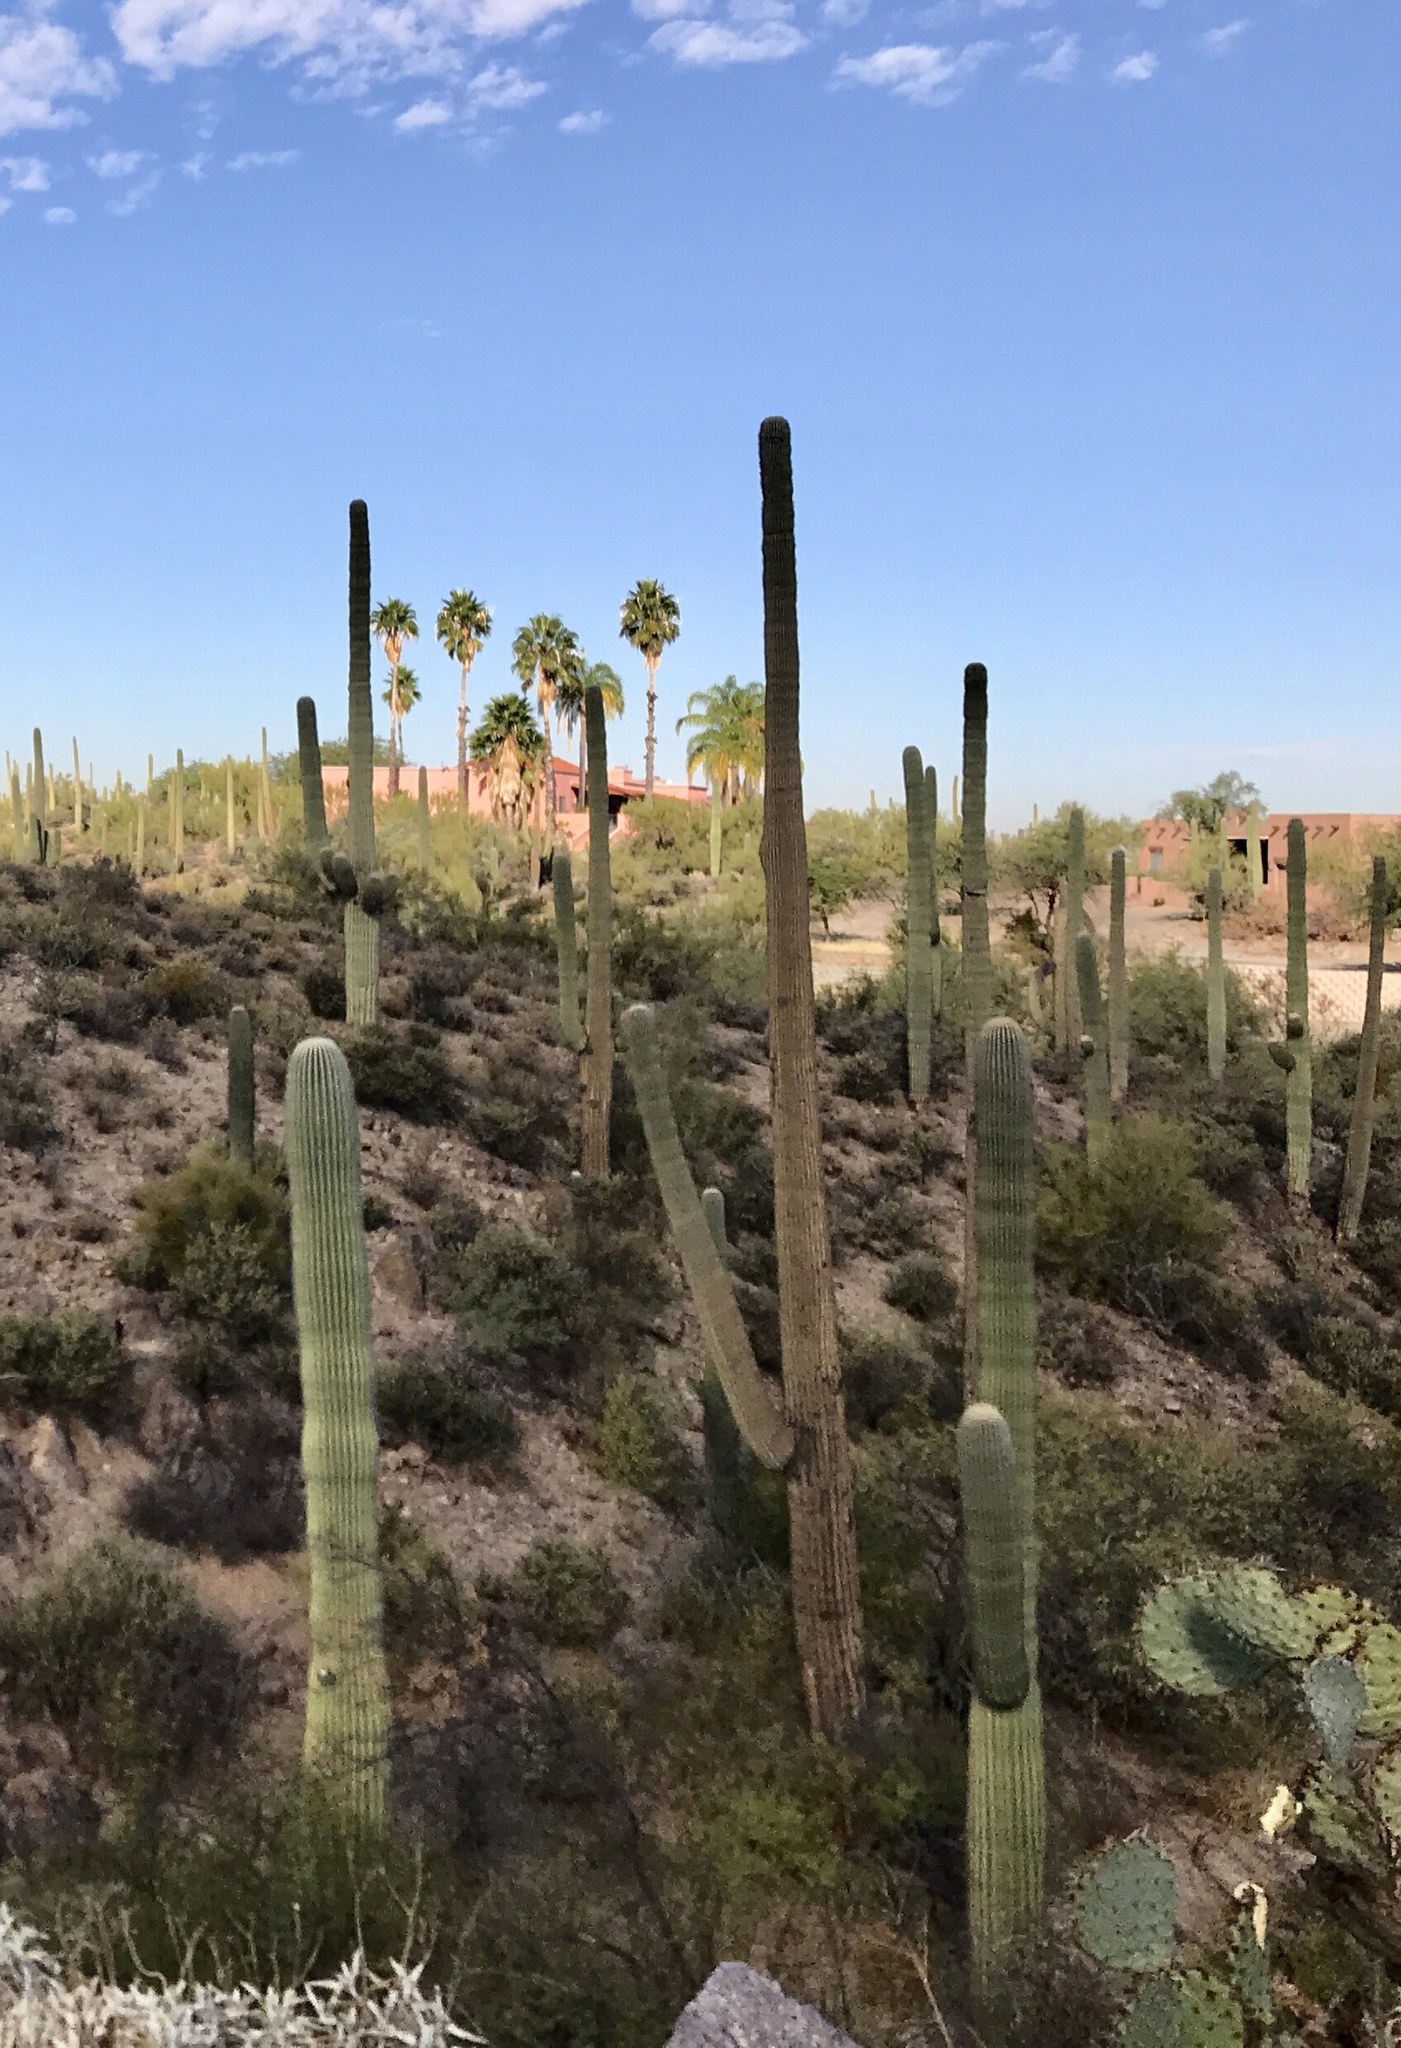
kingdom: Plantae
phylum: Tracheophyta
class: Magnoliopsida
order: Caryophyllales
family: Cactaceae
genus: Carnegiea
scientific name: Carnegiea gigantea
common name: Saguaro
